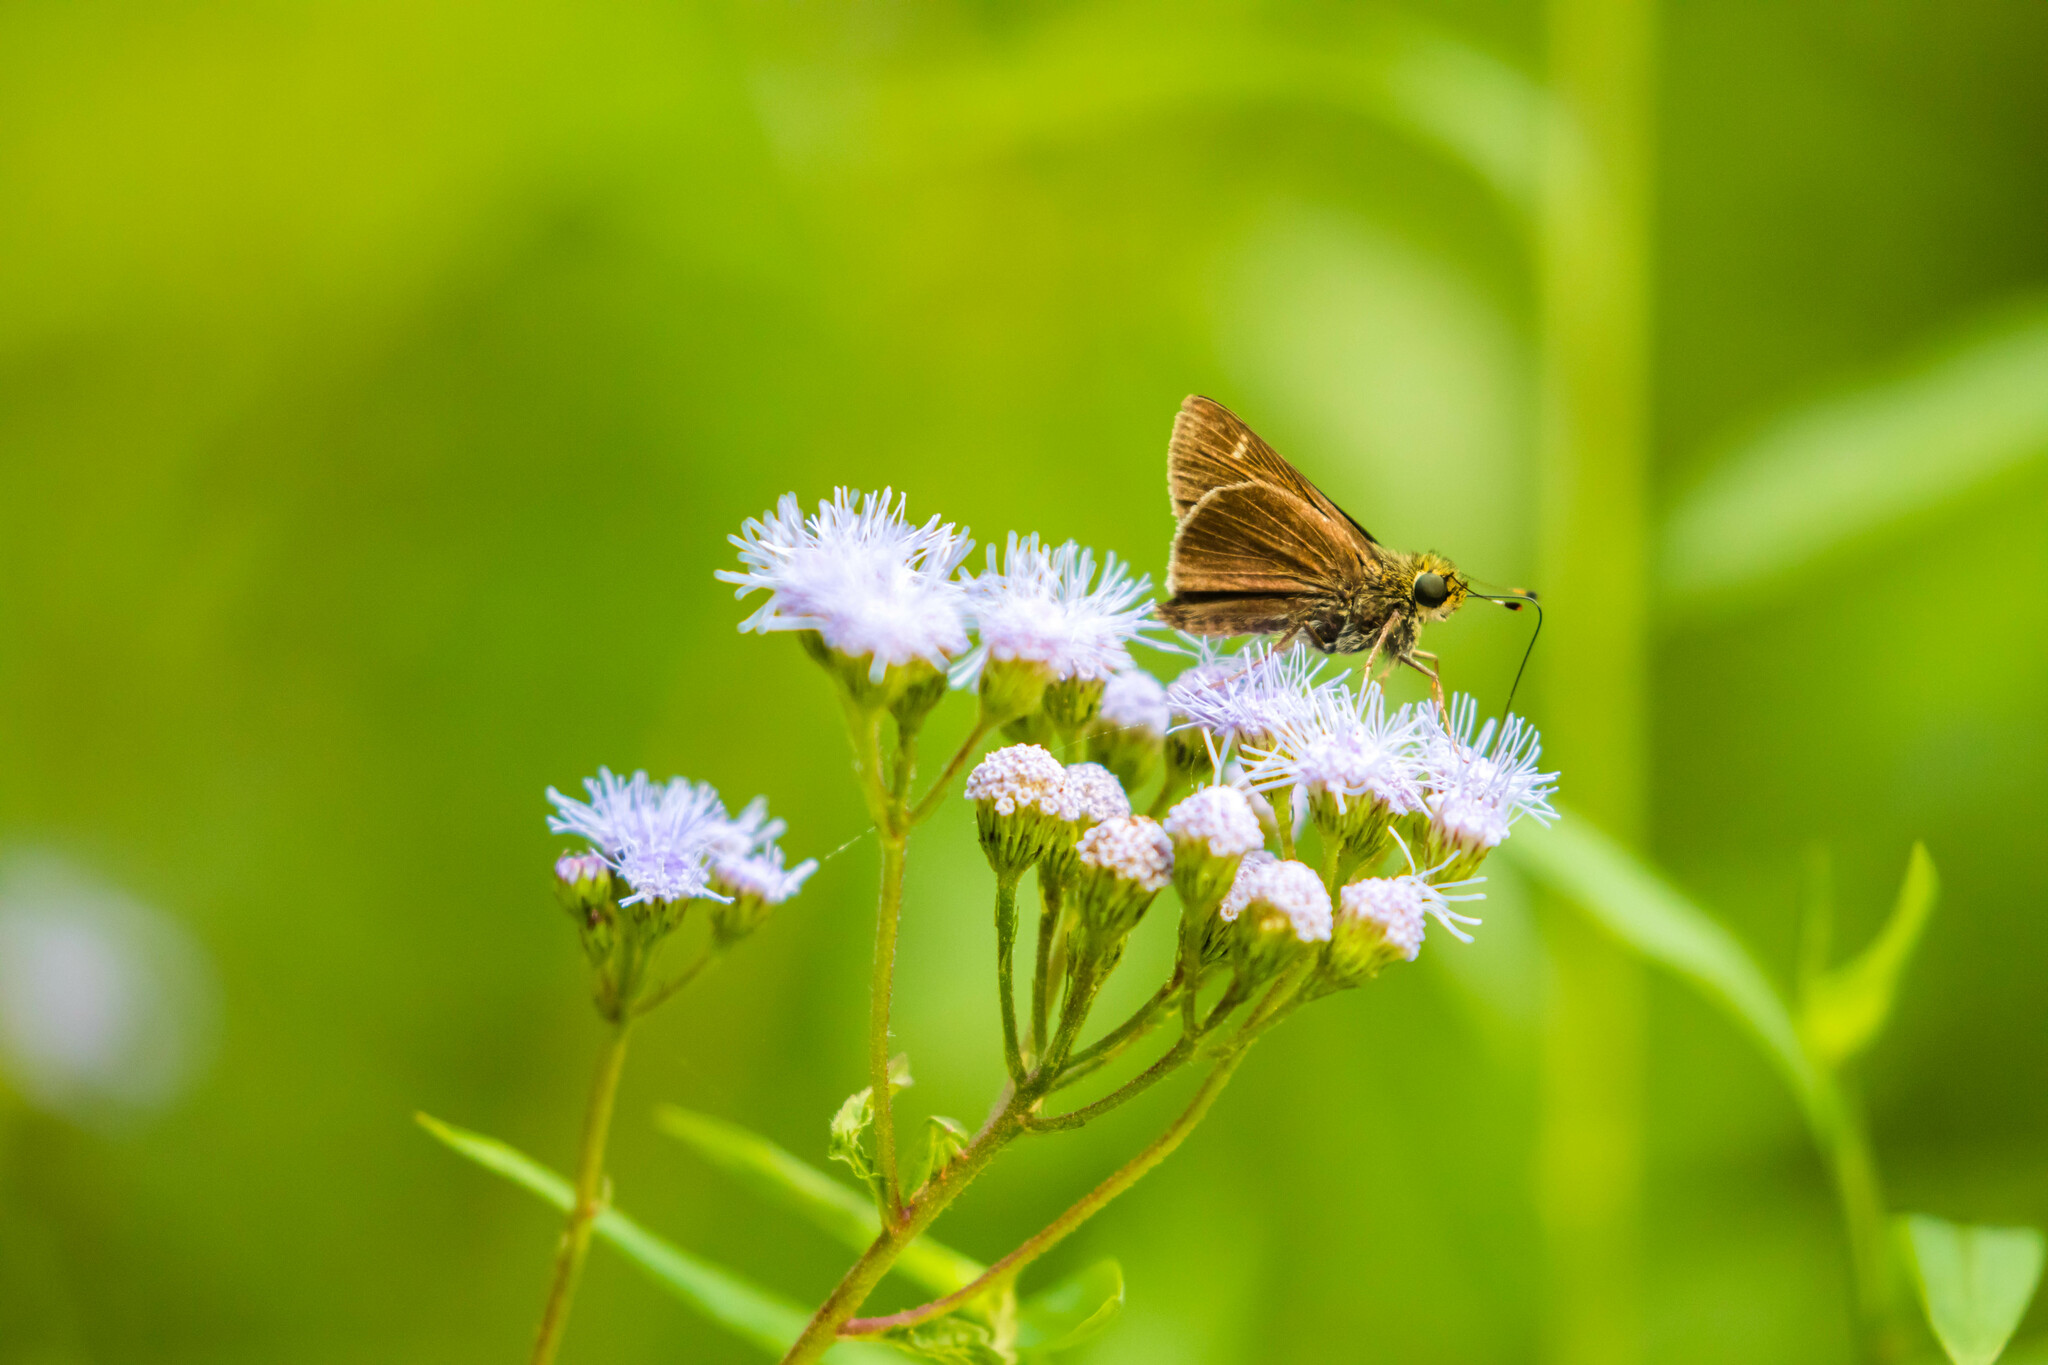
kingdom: Animalia
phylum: Arthropoda
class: Insecta
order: Lepidoptera
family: Hesperiidae
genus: Vernia
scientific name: Vernia verna
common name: Little glassywing
